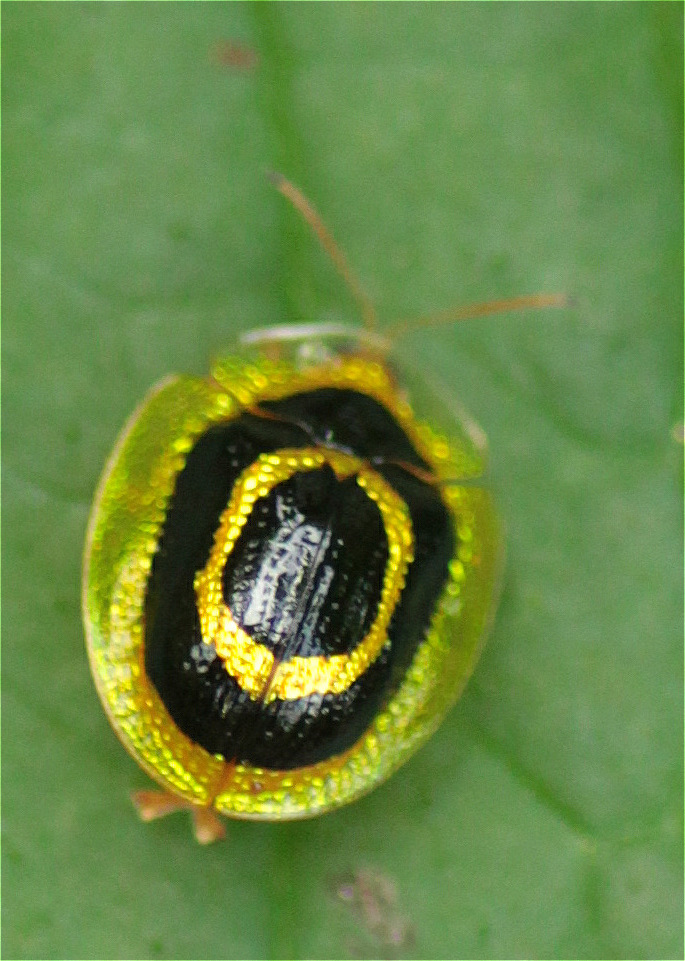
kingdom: Animalia
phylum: Arthropoda
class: Insecta
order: Coleoptera
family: Chrysomelidae
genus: Microctenochira
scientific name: Microctenochira diffinis
